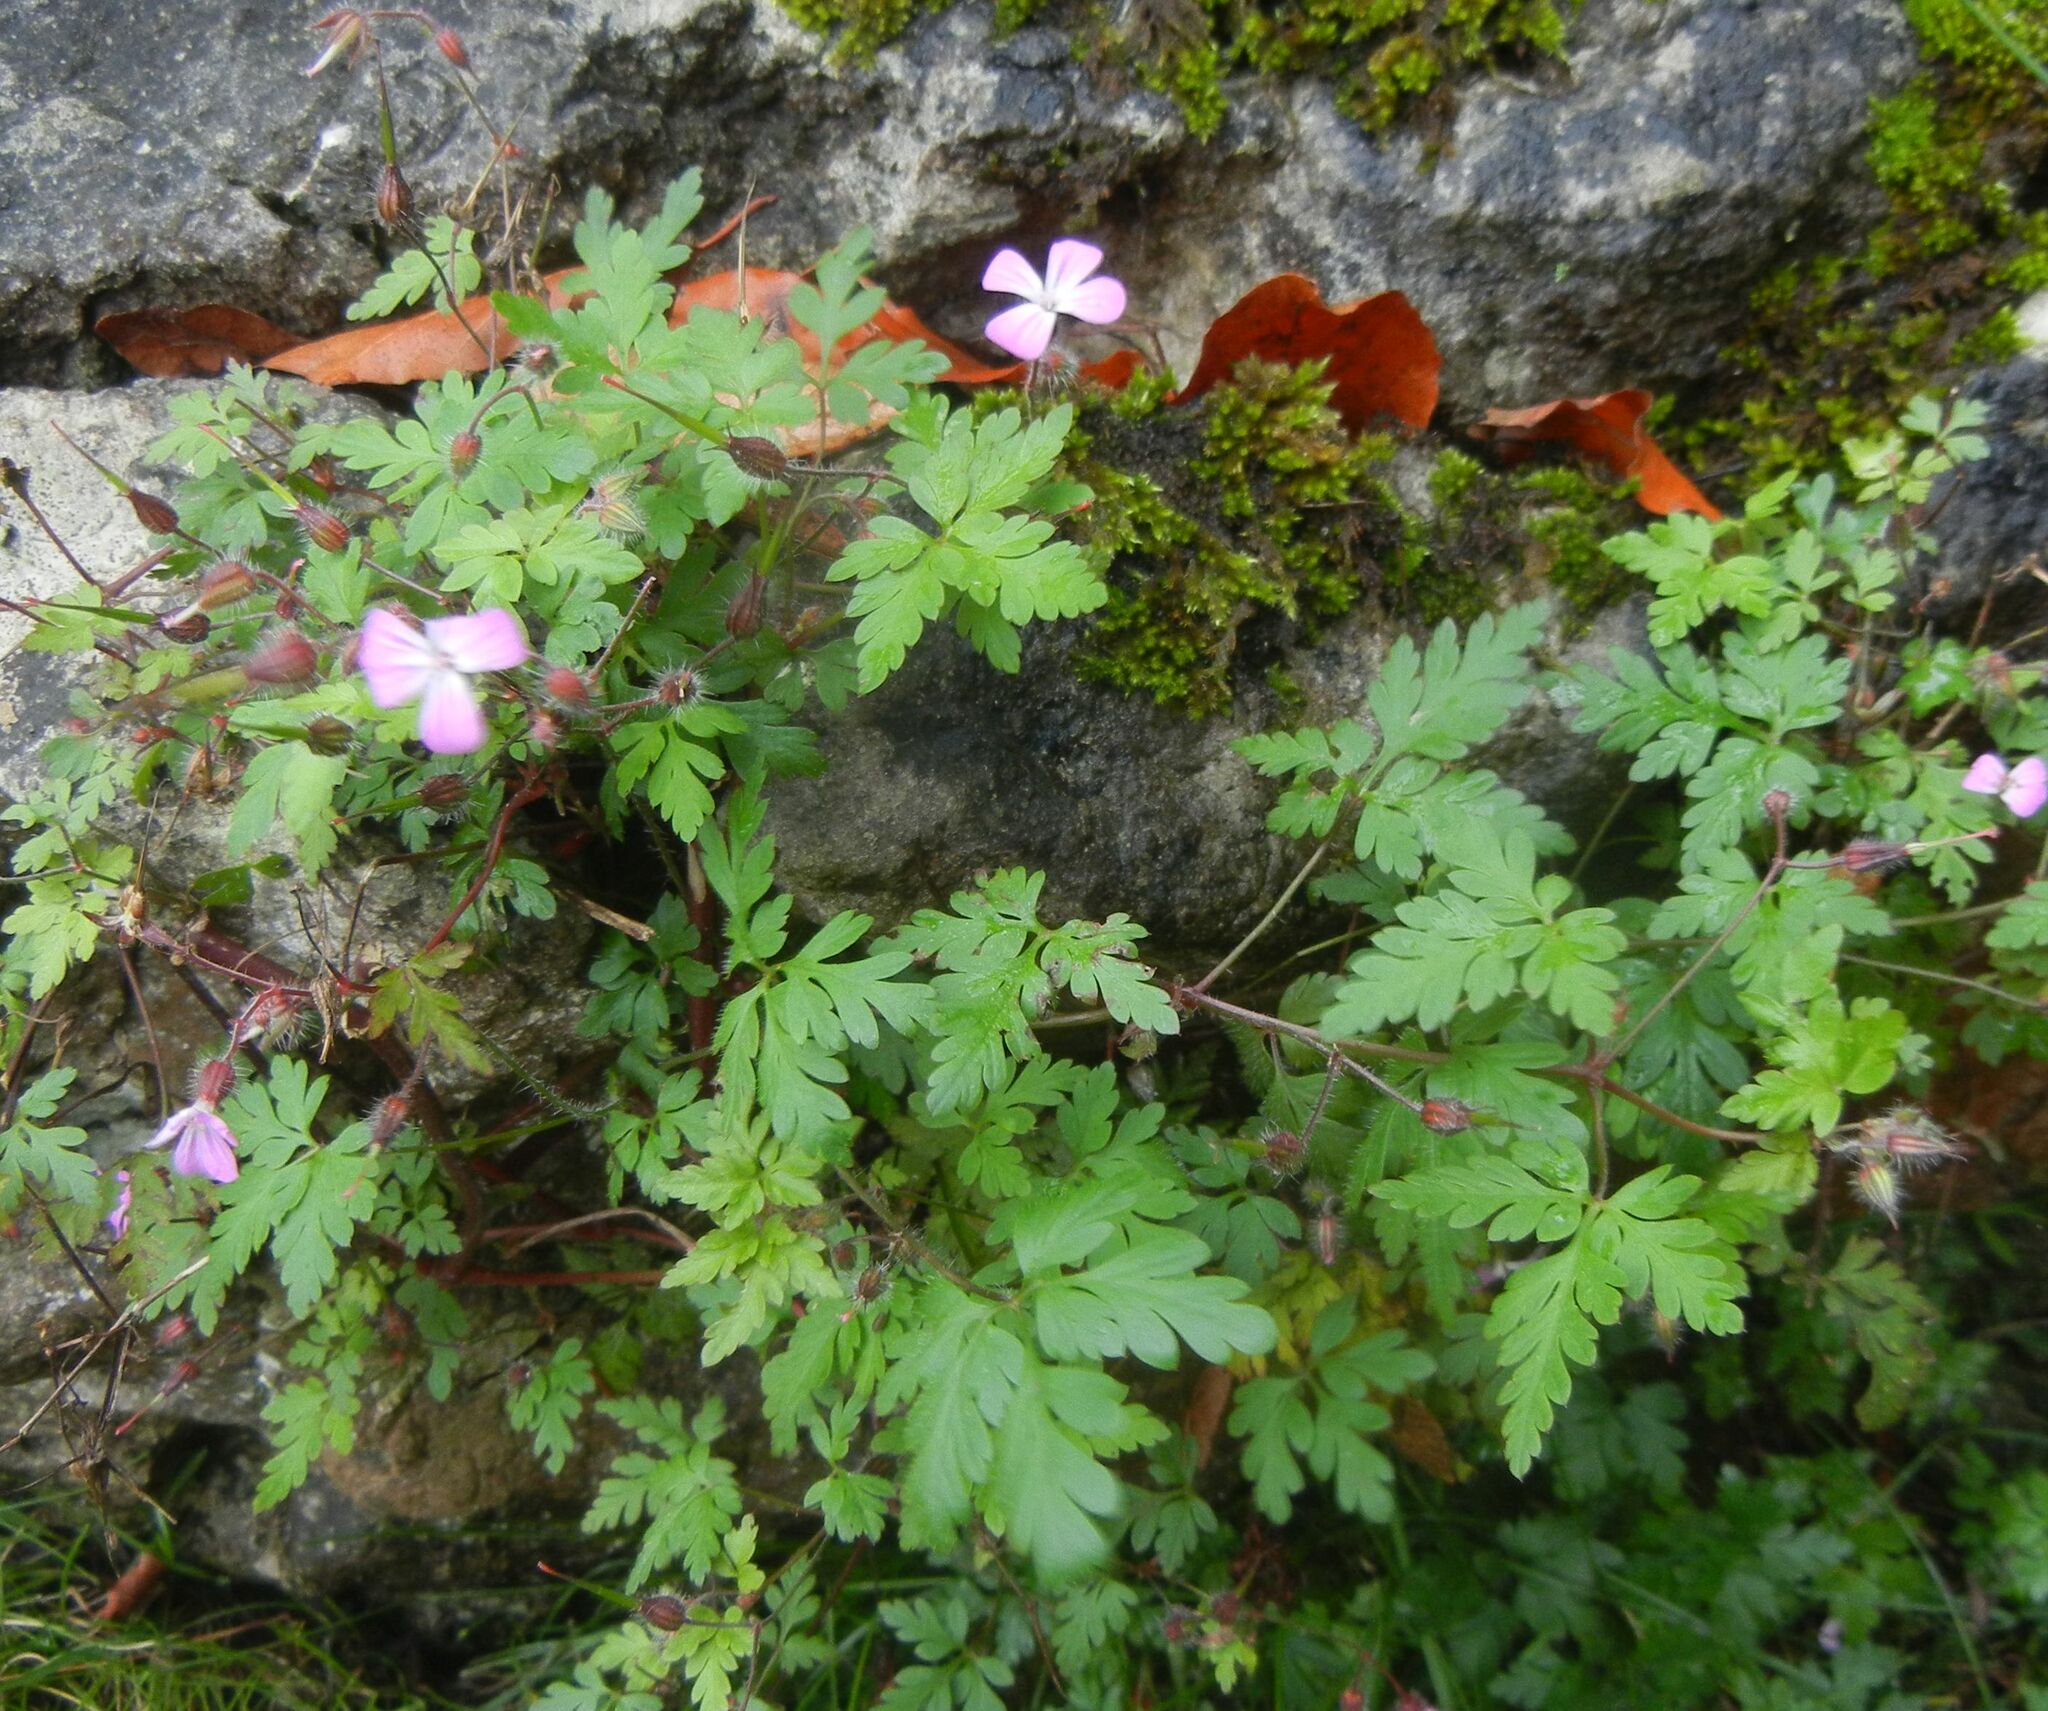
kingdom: Plantae
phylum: Tracheophyta
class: Magnoliopsida
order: Geraniales
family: Geraniaceae
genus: Geranium
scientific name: Geranium robertianum
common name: Herb-robert
